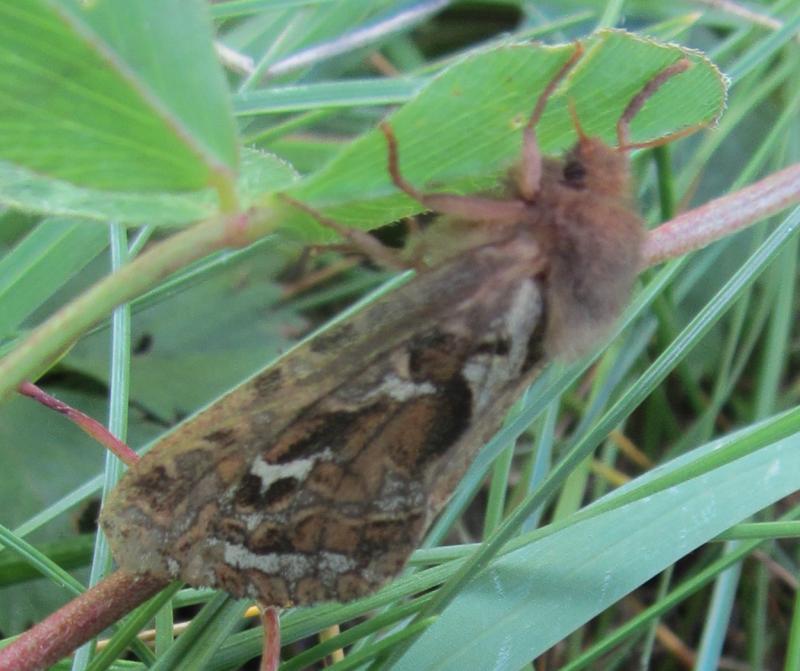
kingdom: Animalia
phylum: Arthropoda
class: Insecta
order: Lepidoptera
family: Hepialidae
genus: Korscheltellus
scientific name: Korscheltellus fusconebulosus
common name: Map-winged swift
